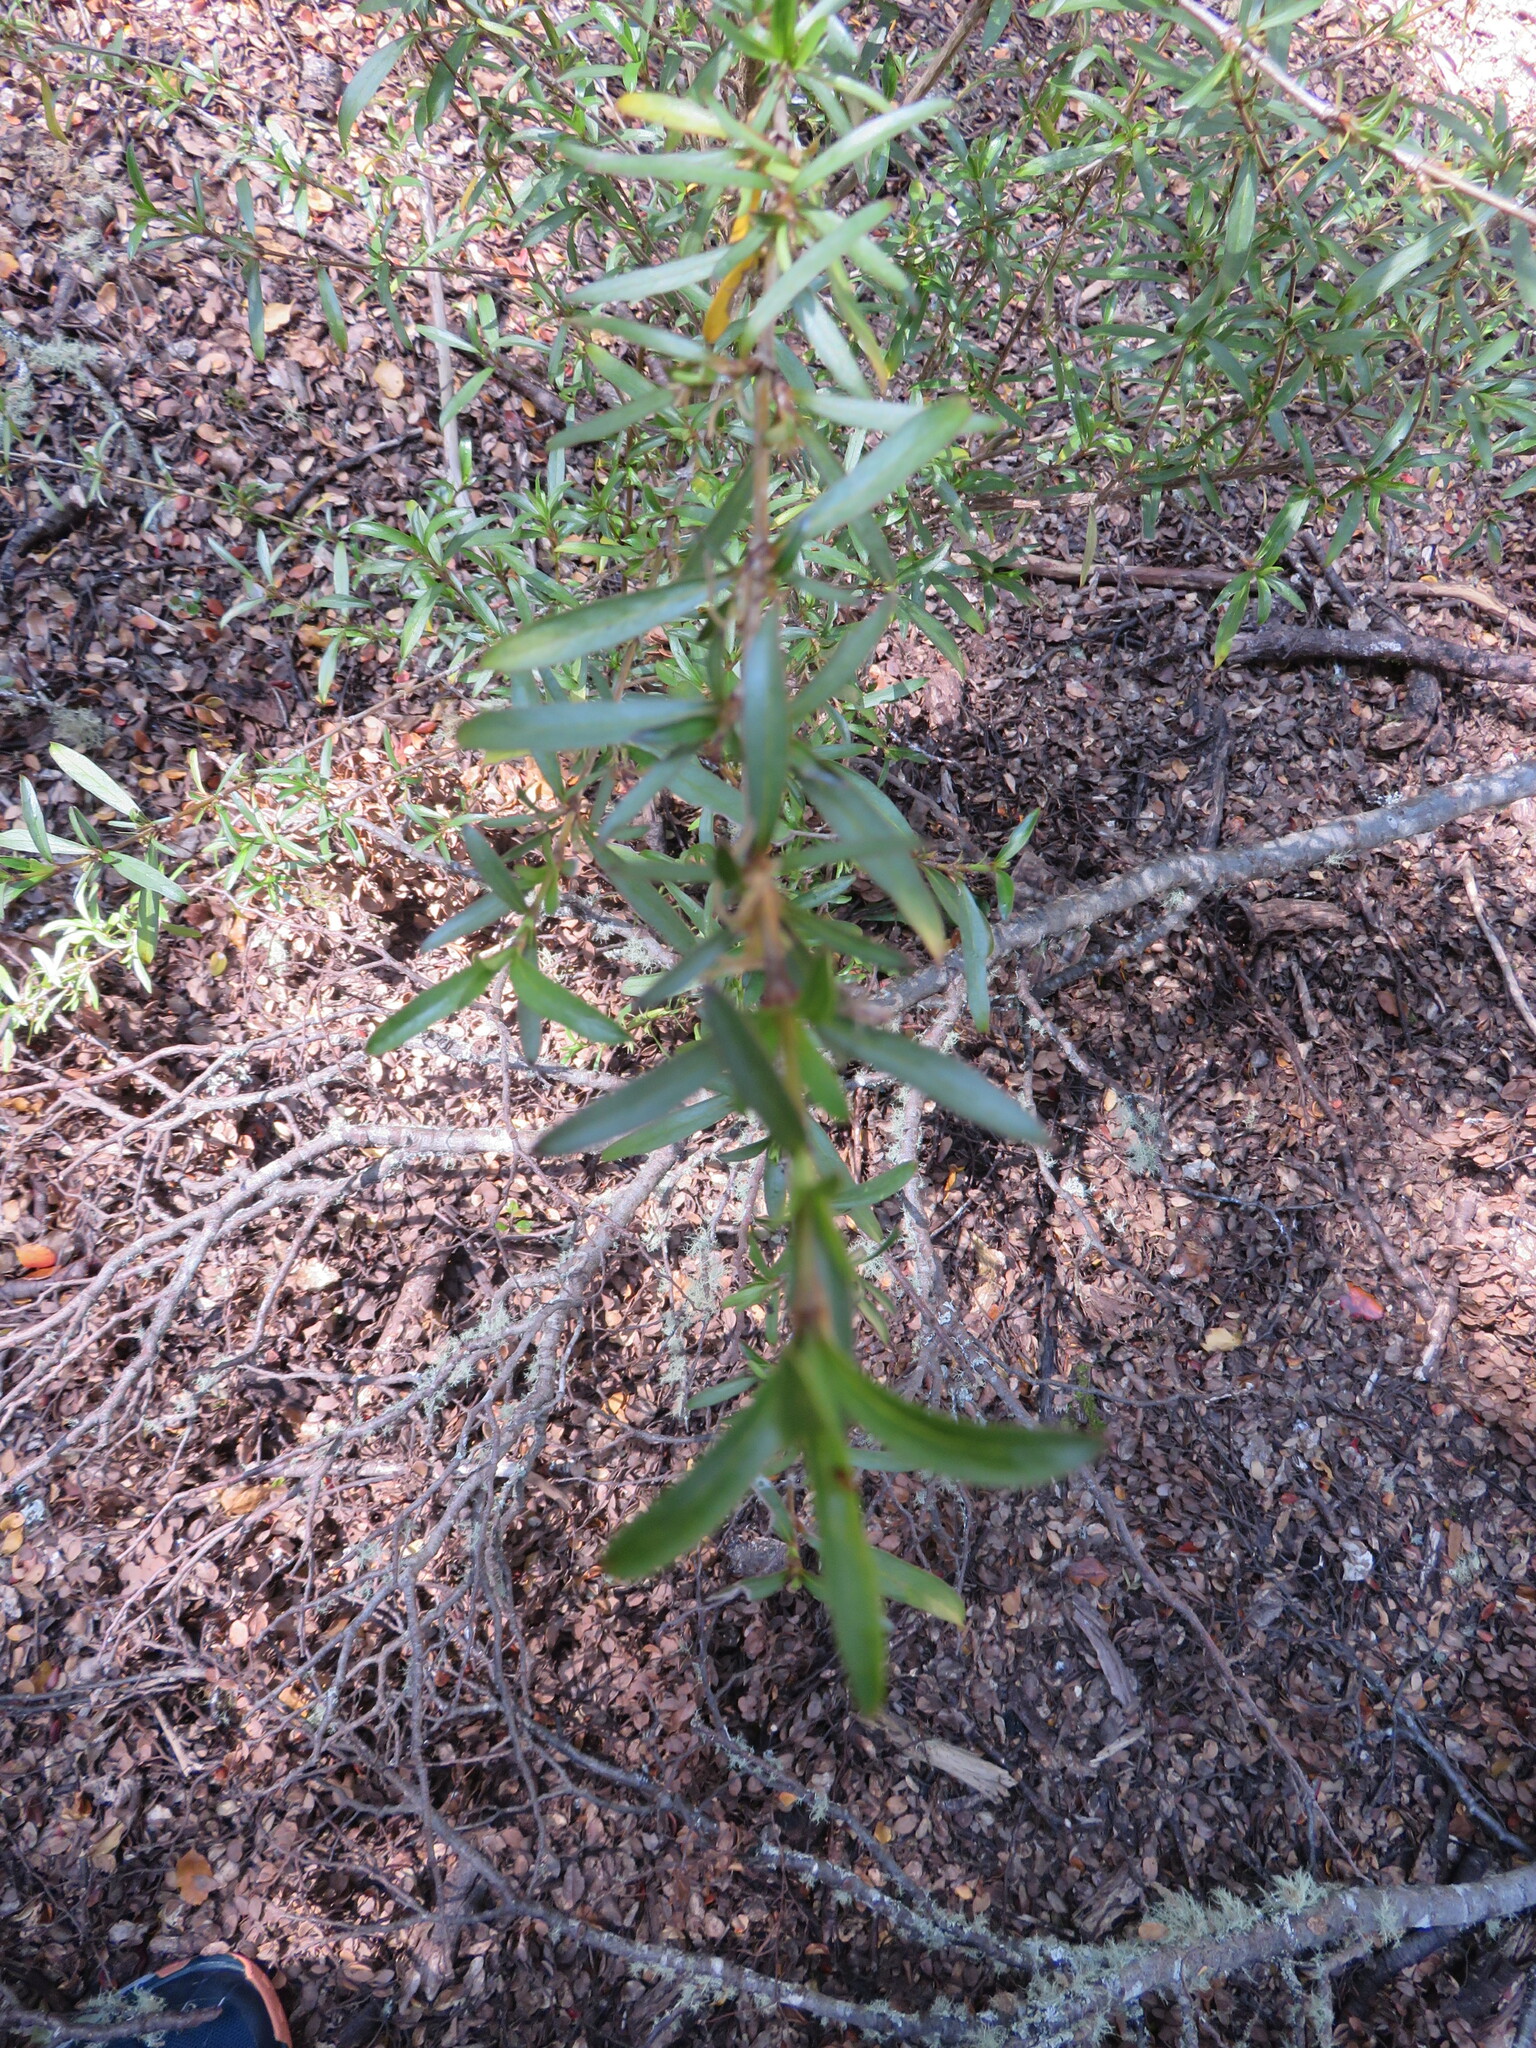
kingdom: Plantae
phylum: Tracheophyta
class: Magnoliopsida
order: Gentianales
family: Rubiaceae
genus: Coprosma
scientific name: Coprosma linariifolia
